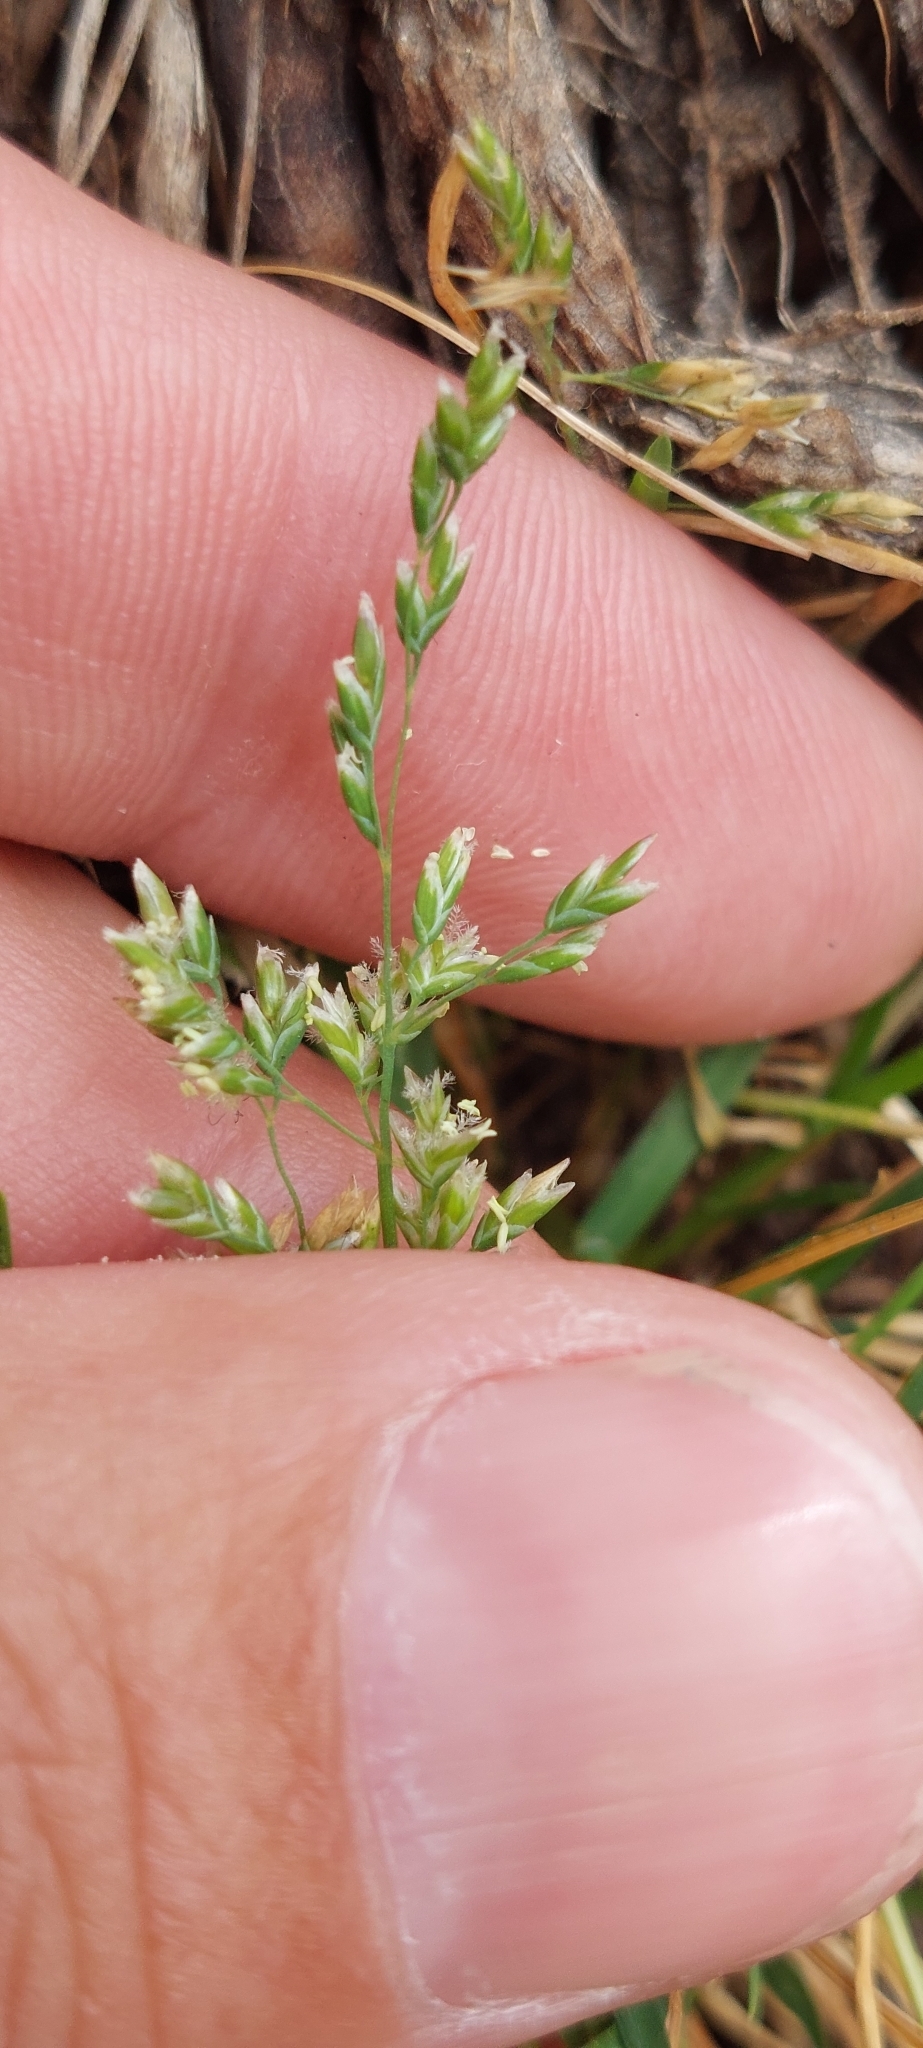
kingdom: Plantae
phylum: Tracheophyta
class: Liliopsida
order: Poales
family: Poaceae
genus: Poa
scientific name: Poa annua
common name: Annual bluegrass
